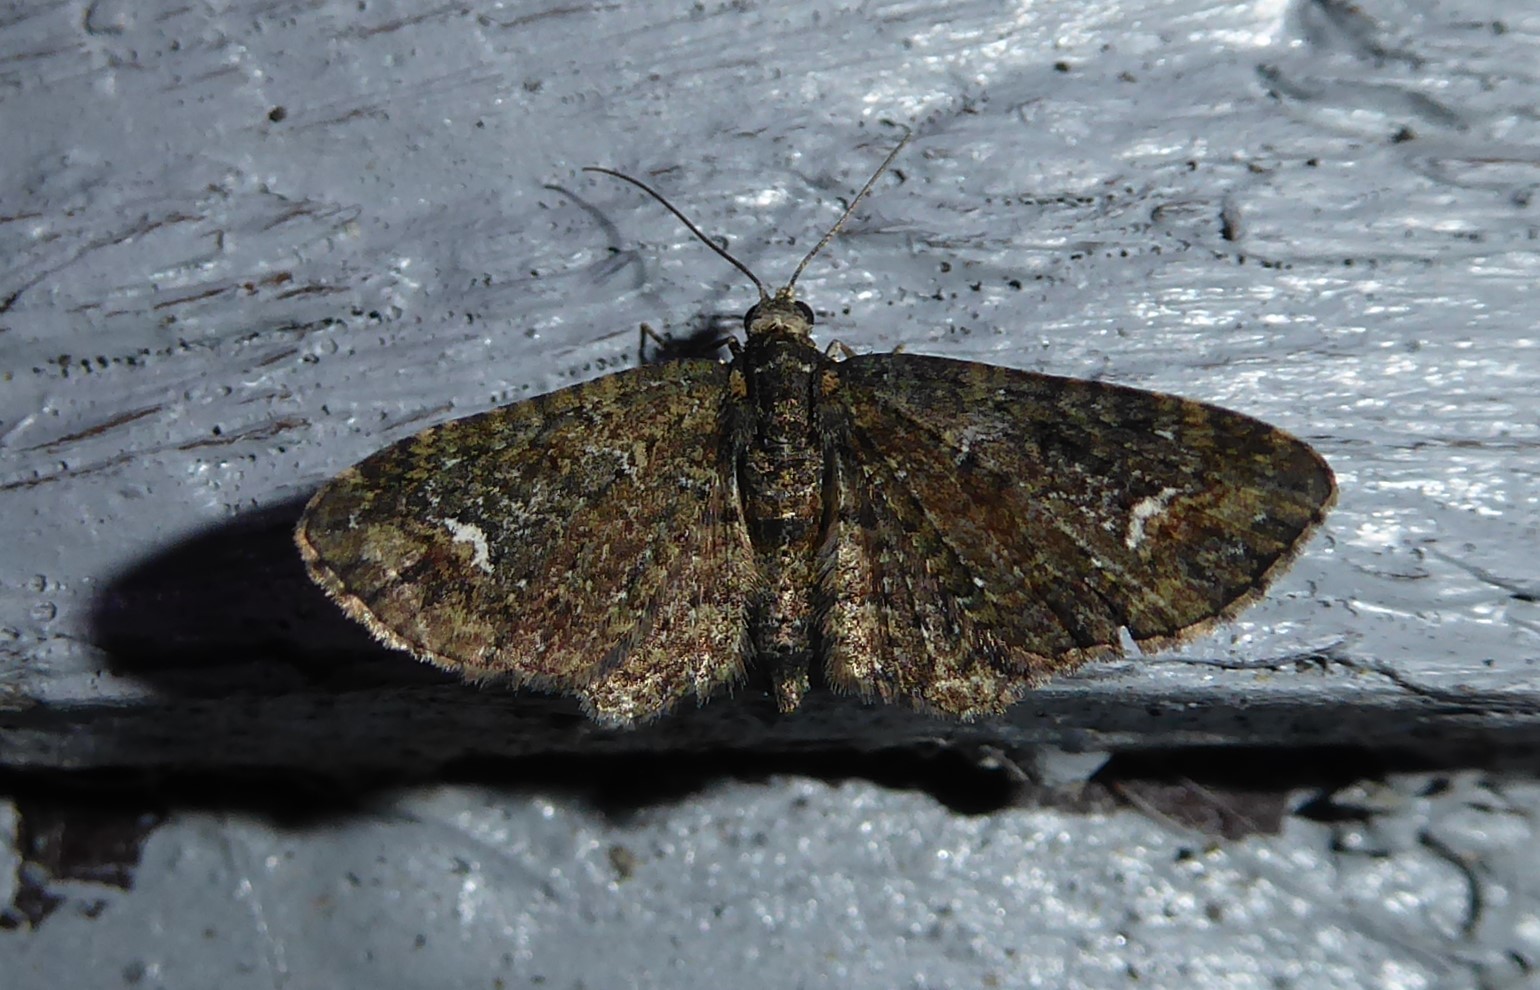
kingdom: Animalia
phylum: Arthropoda
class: Insecta
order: Lepidoptera
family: Geometridae
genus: Pasiphilodes
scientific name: Pasiphilodes testulata
